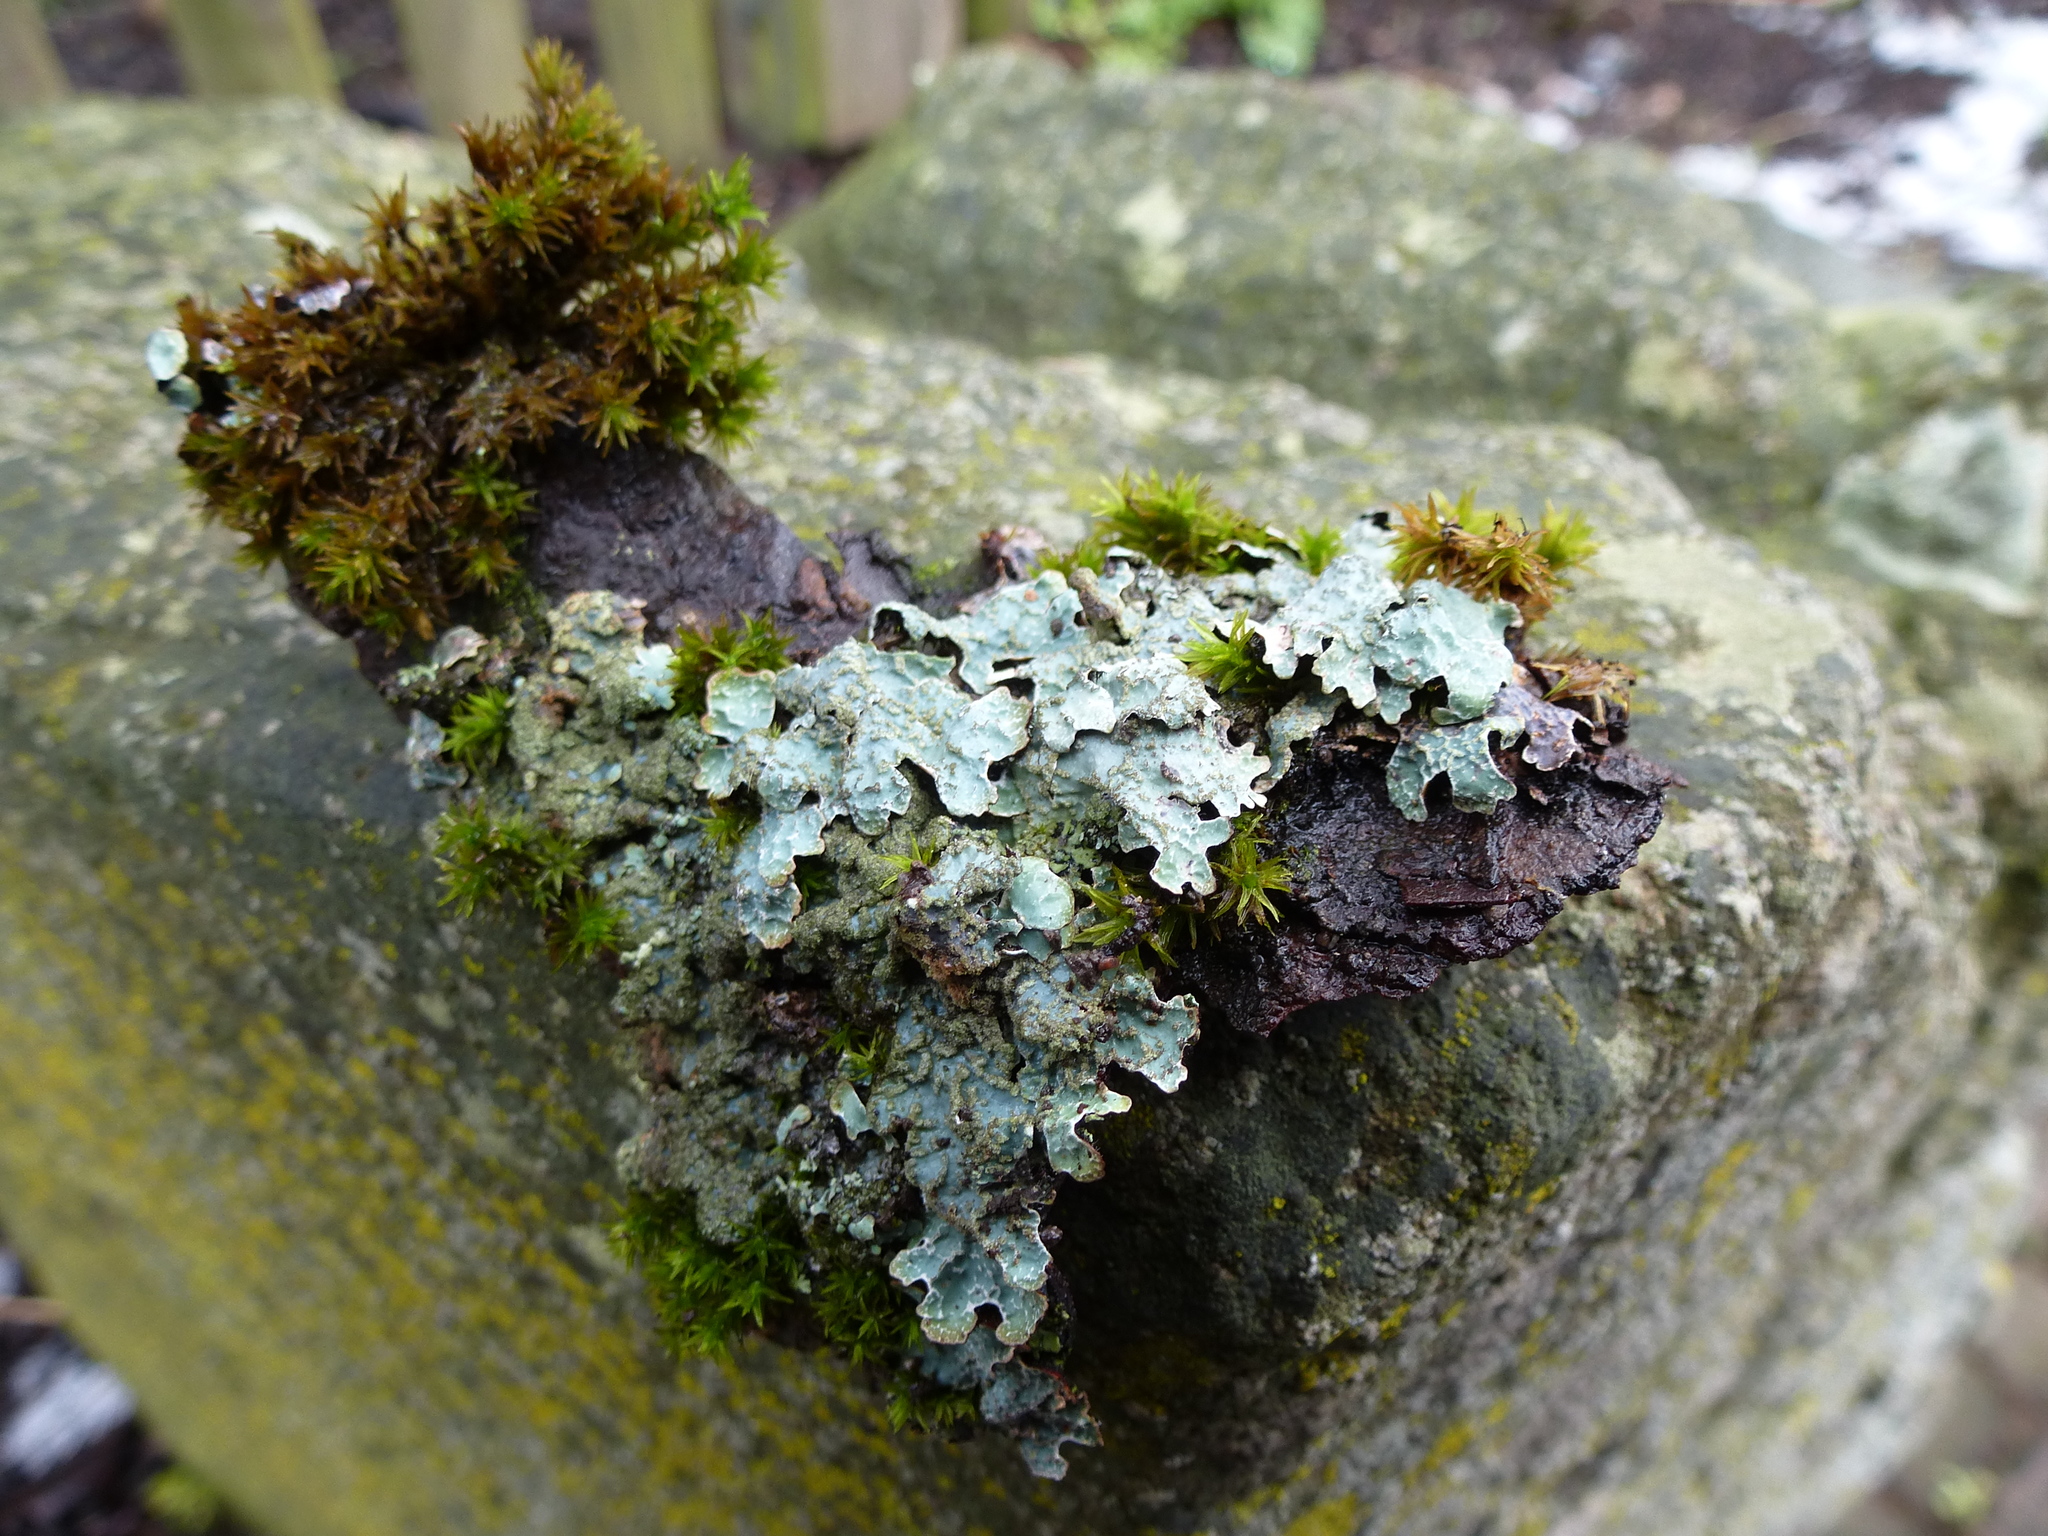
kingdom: Fungi
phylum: Ascomycota
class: Lecanoromycetes
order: Lecanorales
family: Parmeliaceae
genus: Parmelia
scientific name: Parmelia sulcata
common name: Netted shield lichen
